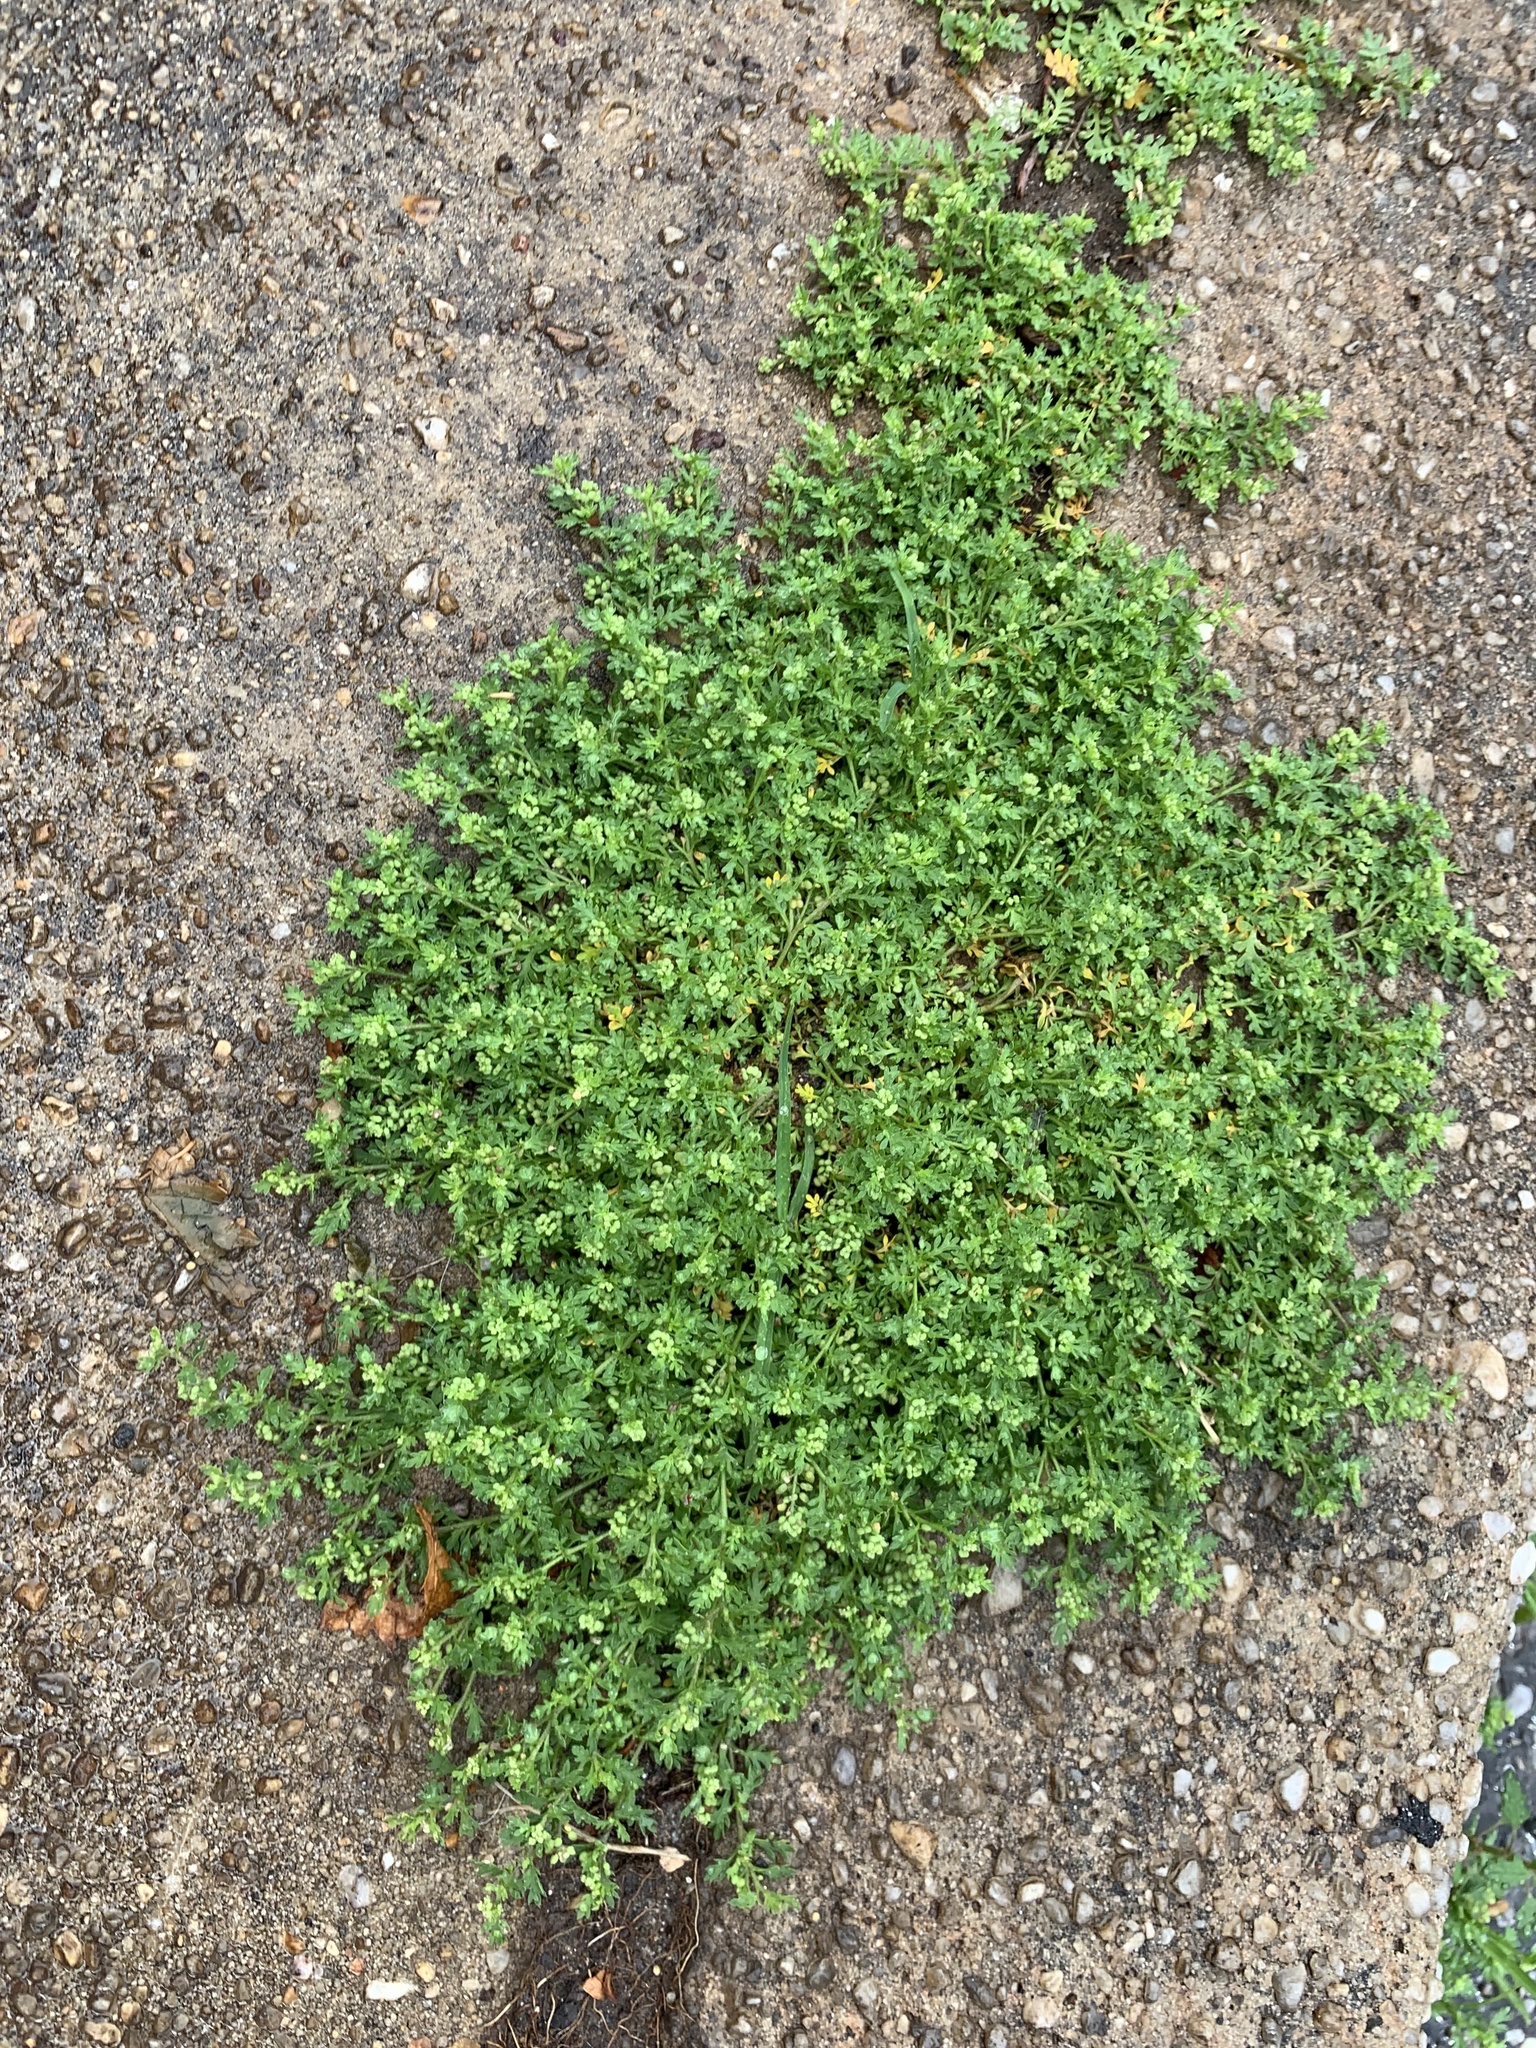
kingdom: Plantae
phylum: Tracheophyta
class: Magnoliopsida
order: Brassicales
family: Brassicaceae
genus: Lepidium
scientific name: Lepidium didymum
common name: Lesser swinecress
